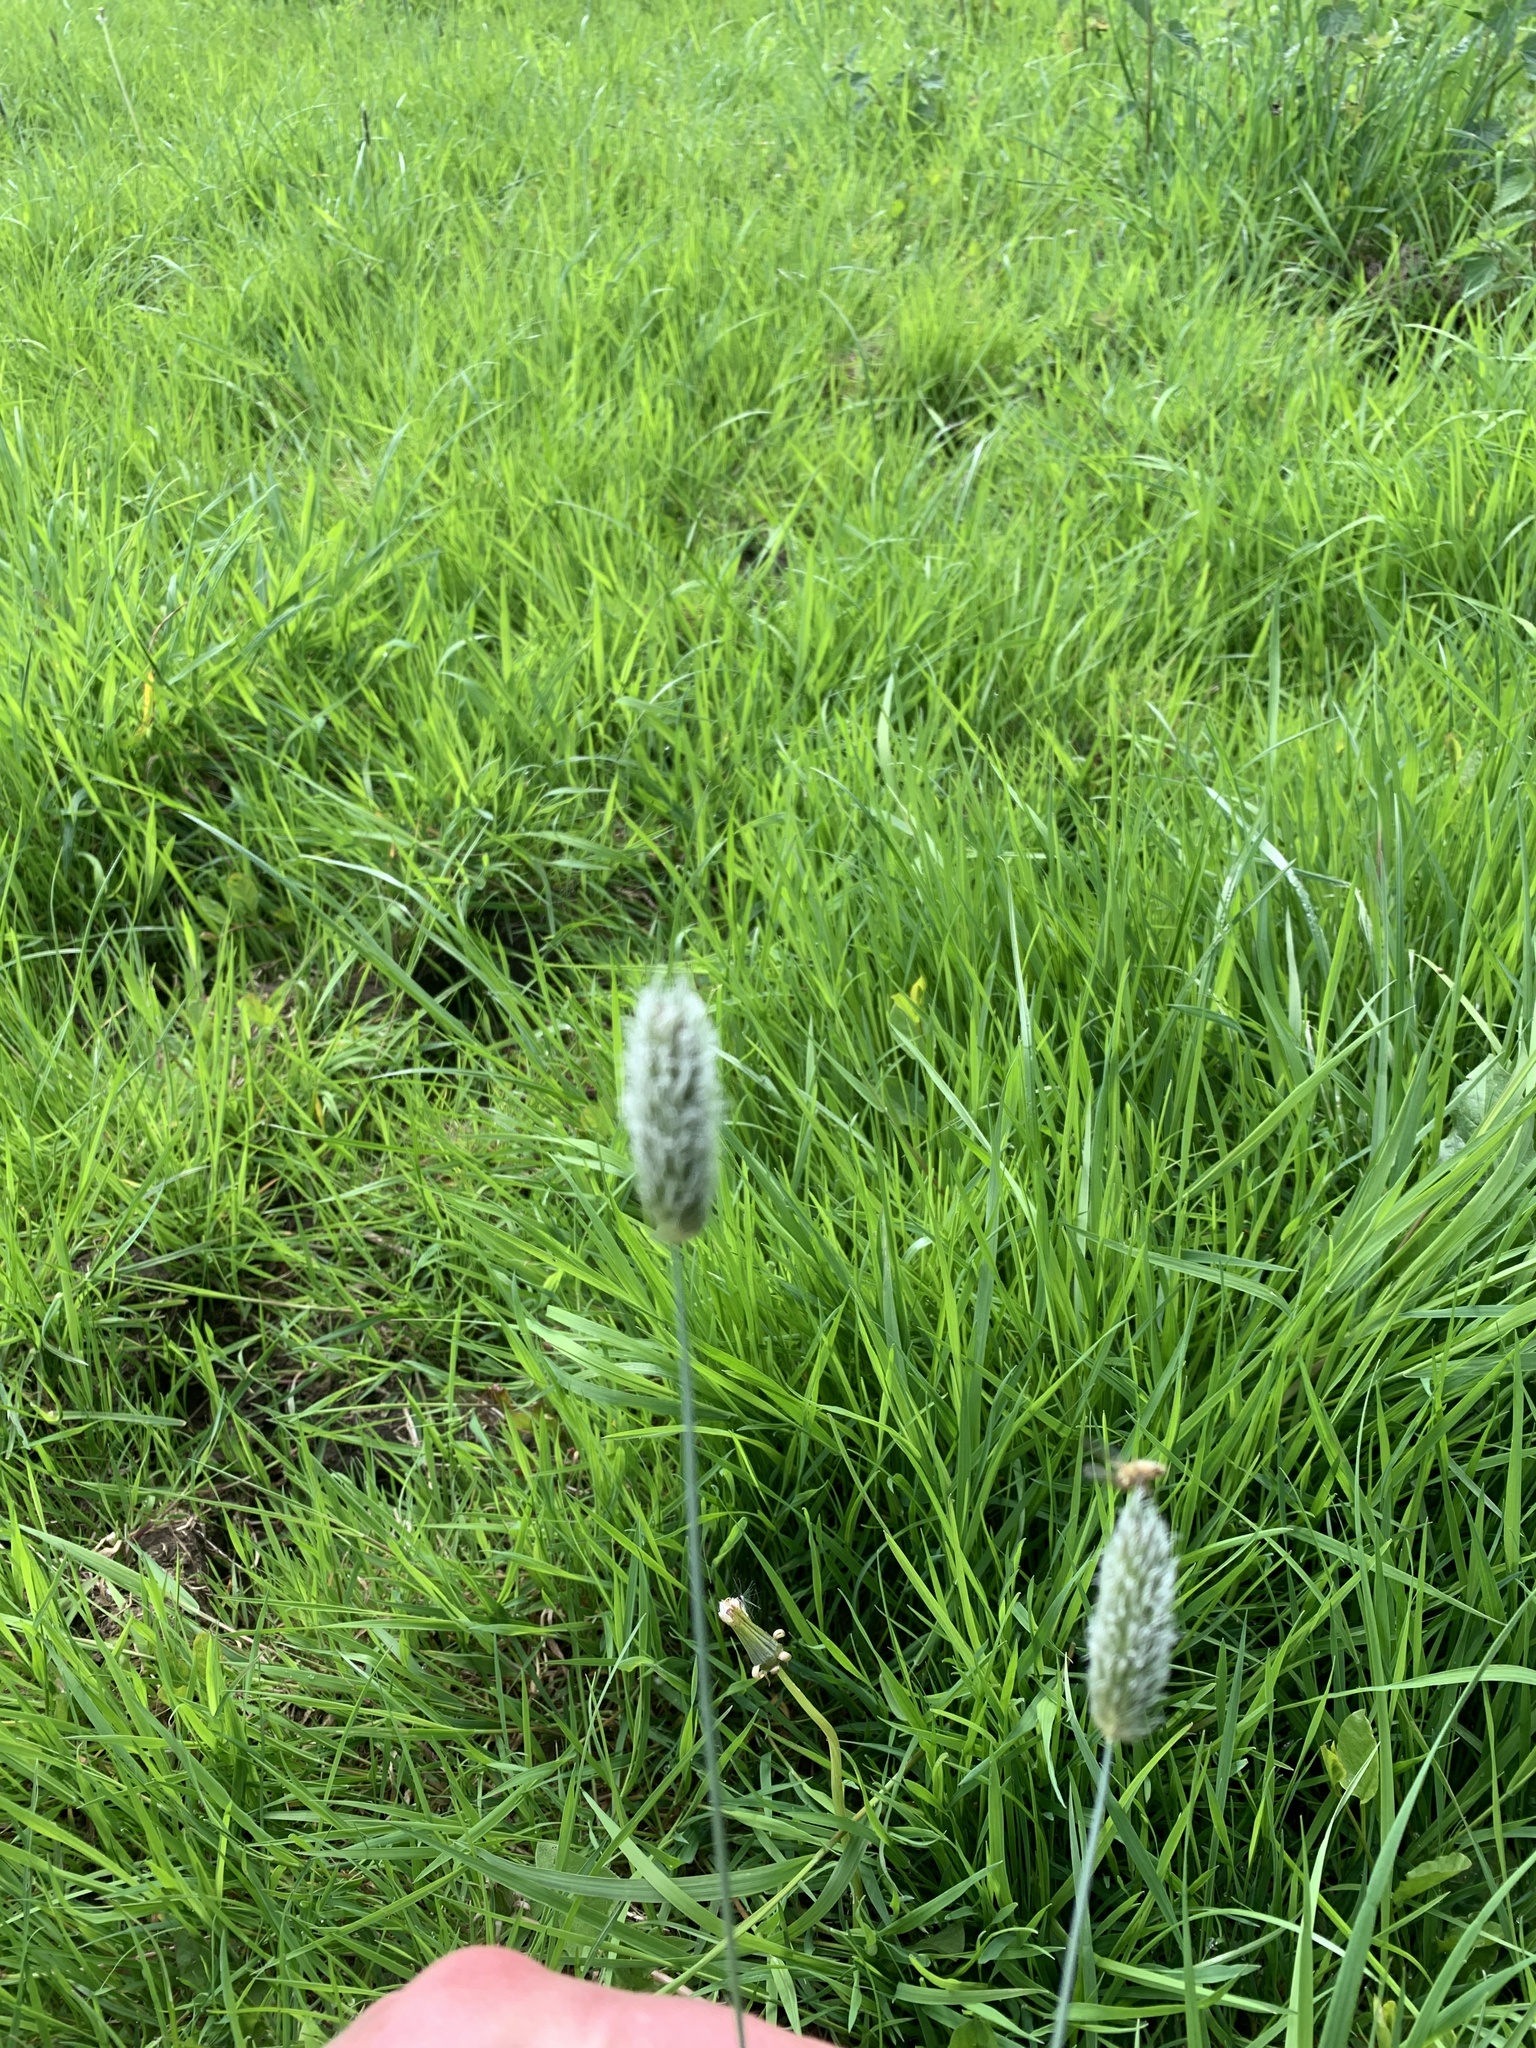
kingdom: Plantae
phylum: Tracheophyta
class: Liliopsida
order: Poales
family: Poaceae
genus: Phleum
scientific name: Phleum pratense
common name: Timothy grass
